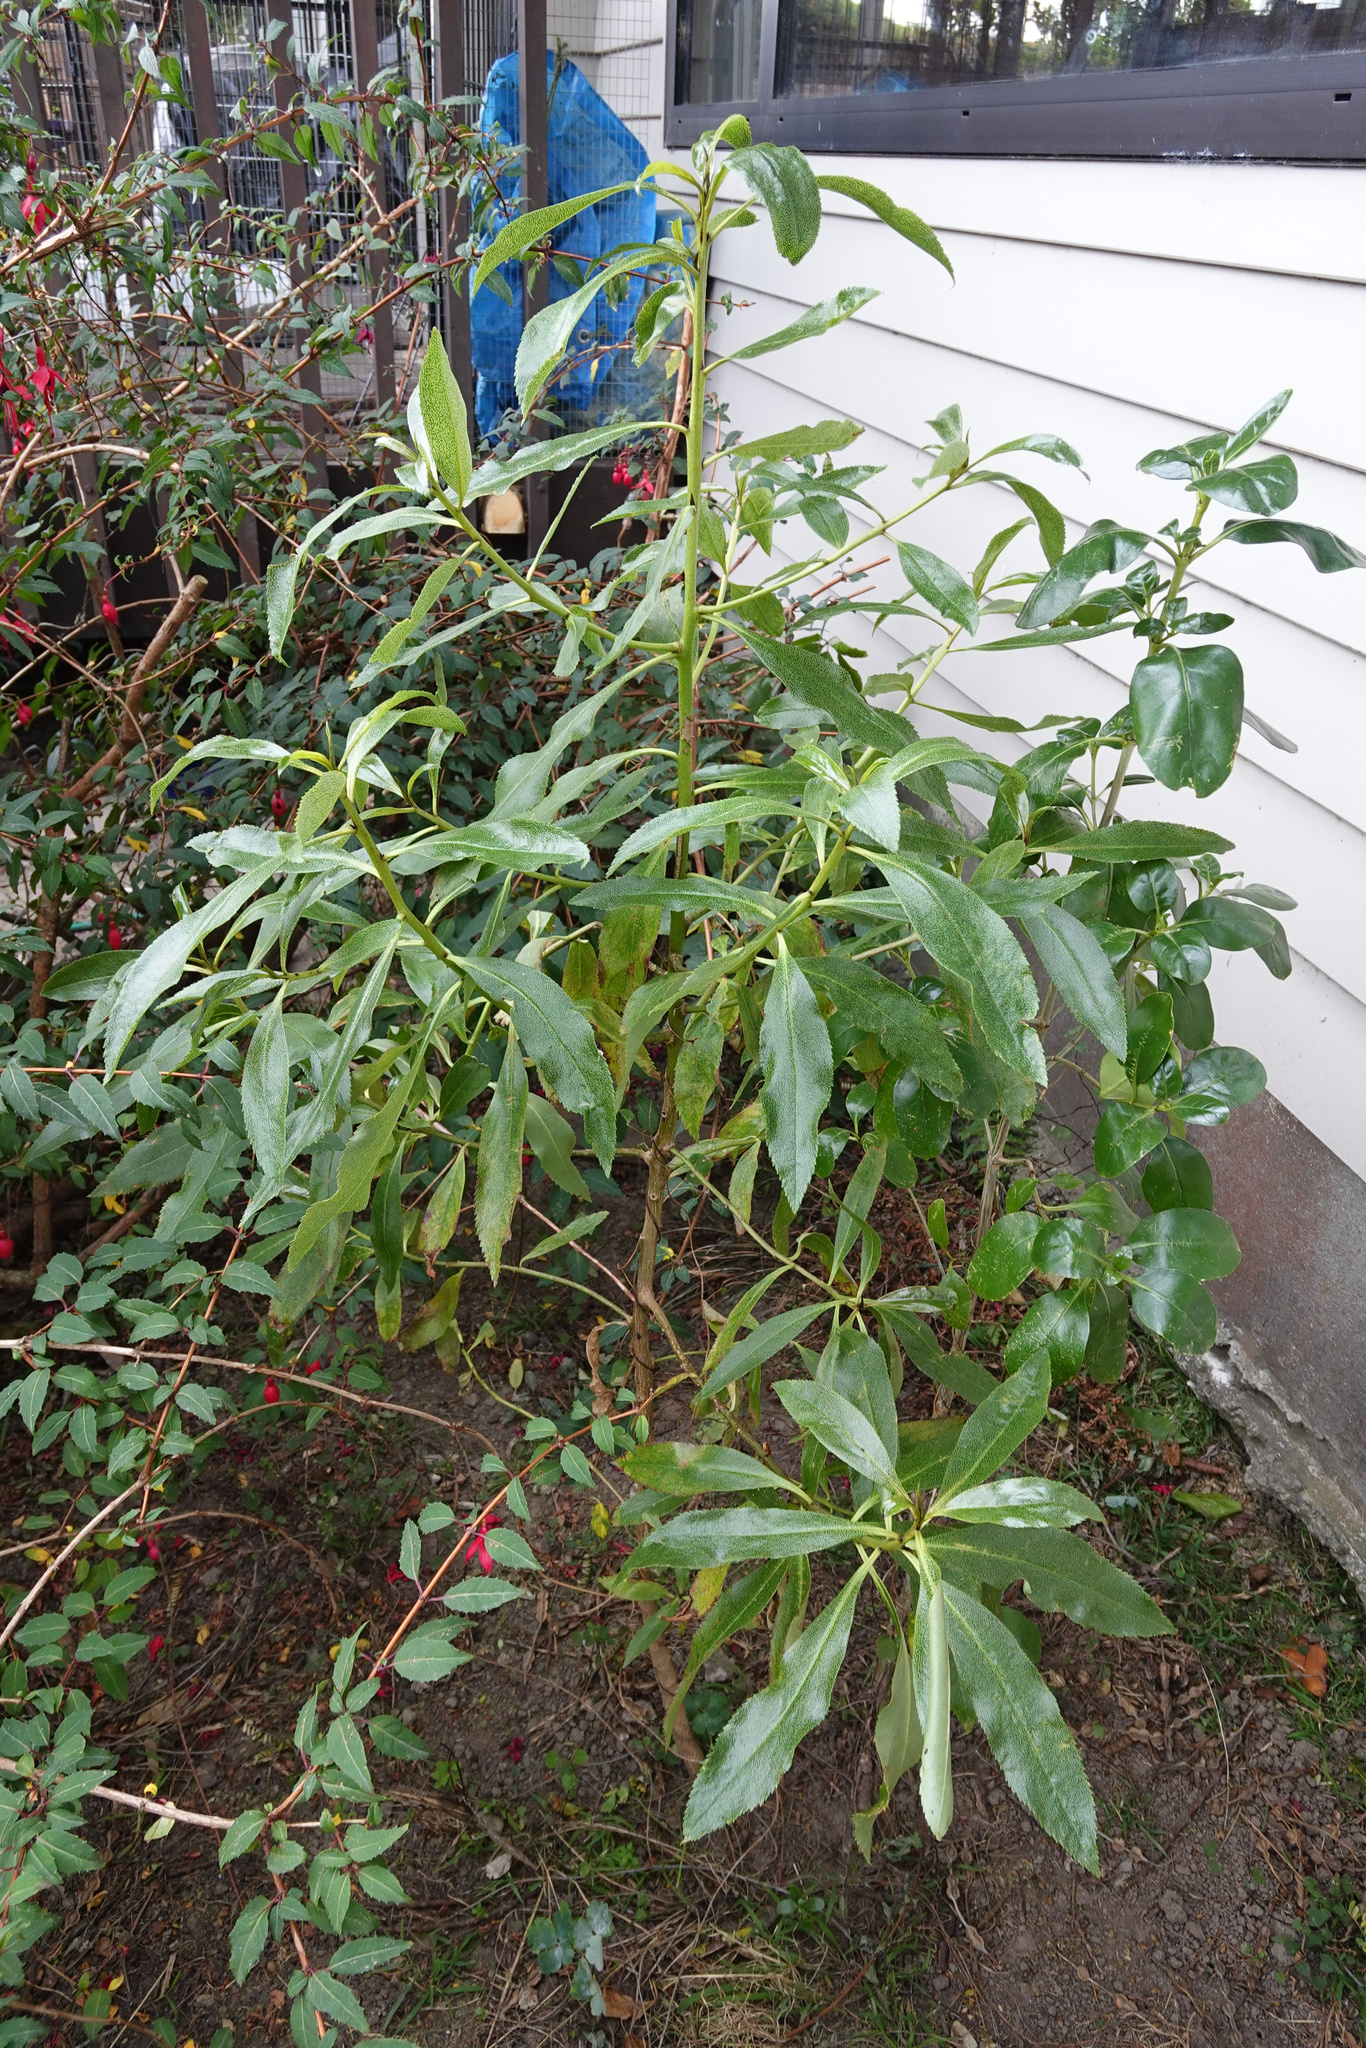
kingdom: Plantae
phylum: Tracheophyta
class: Magnoliopsida
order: Lamiales
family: Scrophulariaceae
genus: Myoporum
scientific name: Myoporum laetum
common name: Ngaio tree
